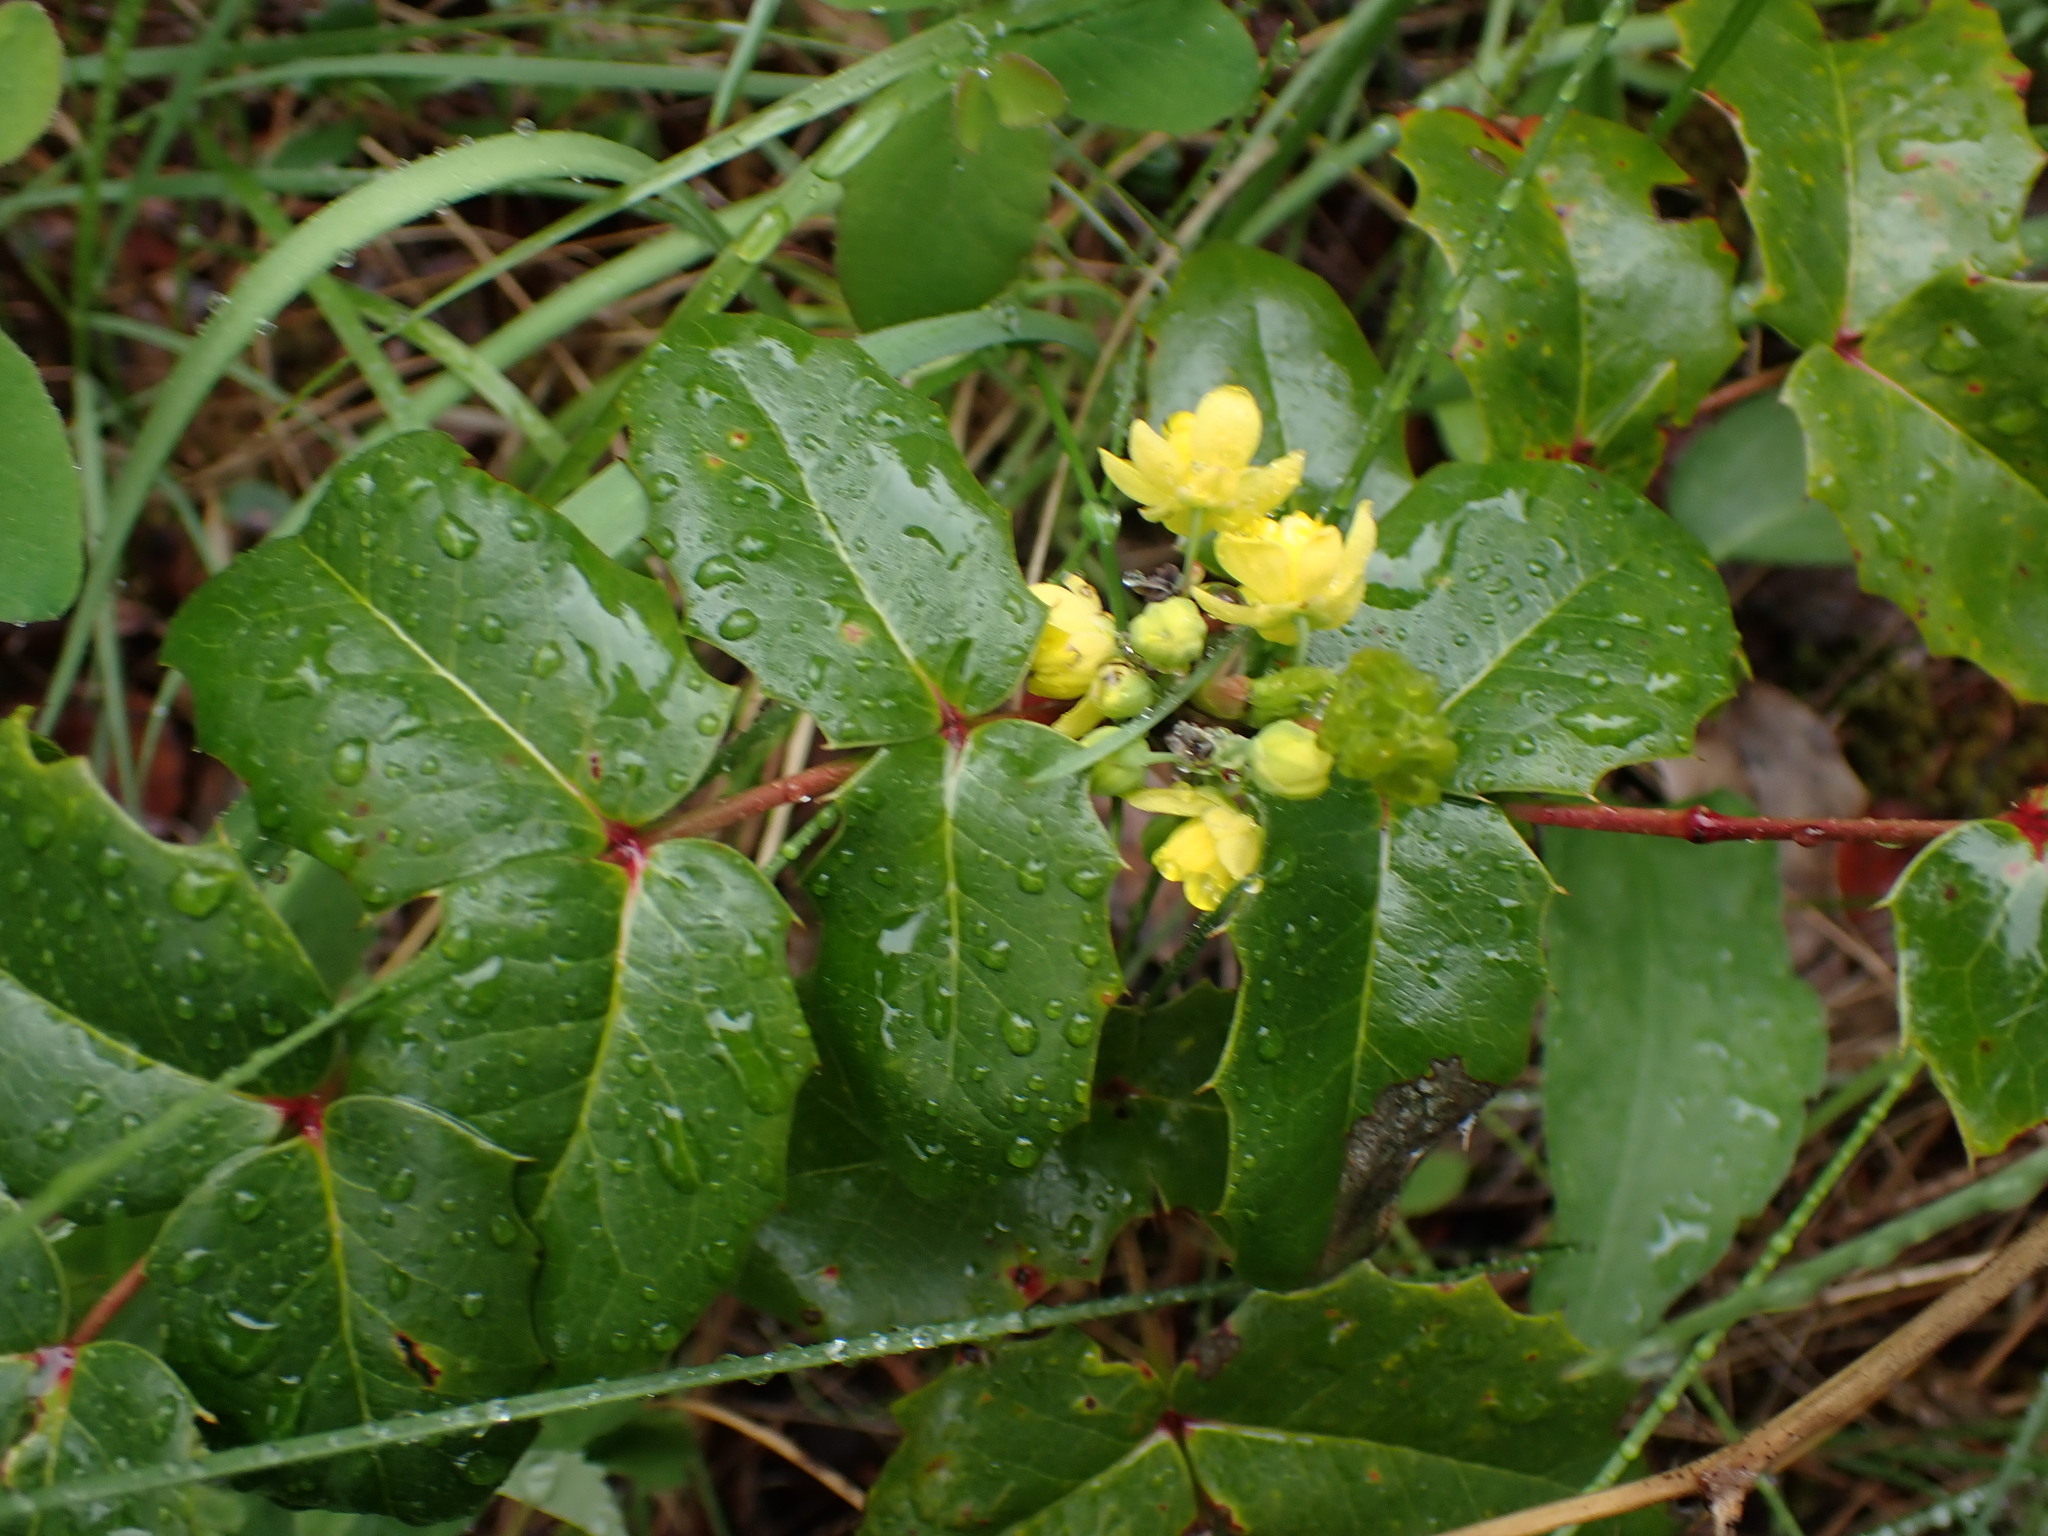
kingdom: Plantae
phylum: Tracheophyta
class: Magnoliopsida
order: Ranunculales
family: Berberidaceae
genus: Mahonia
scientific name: Mahonia aquifolium
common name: Oregon-grape
